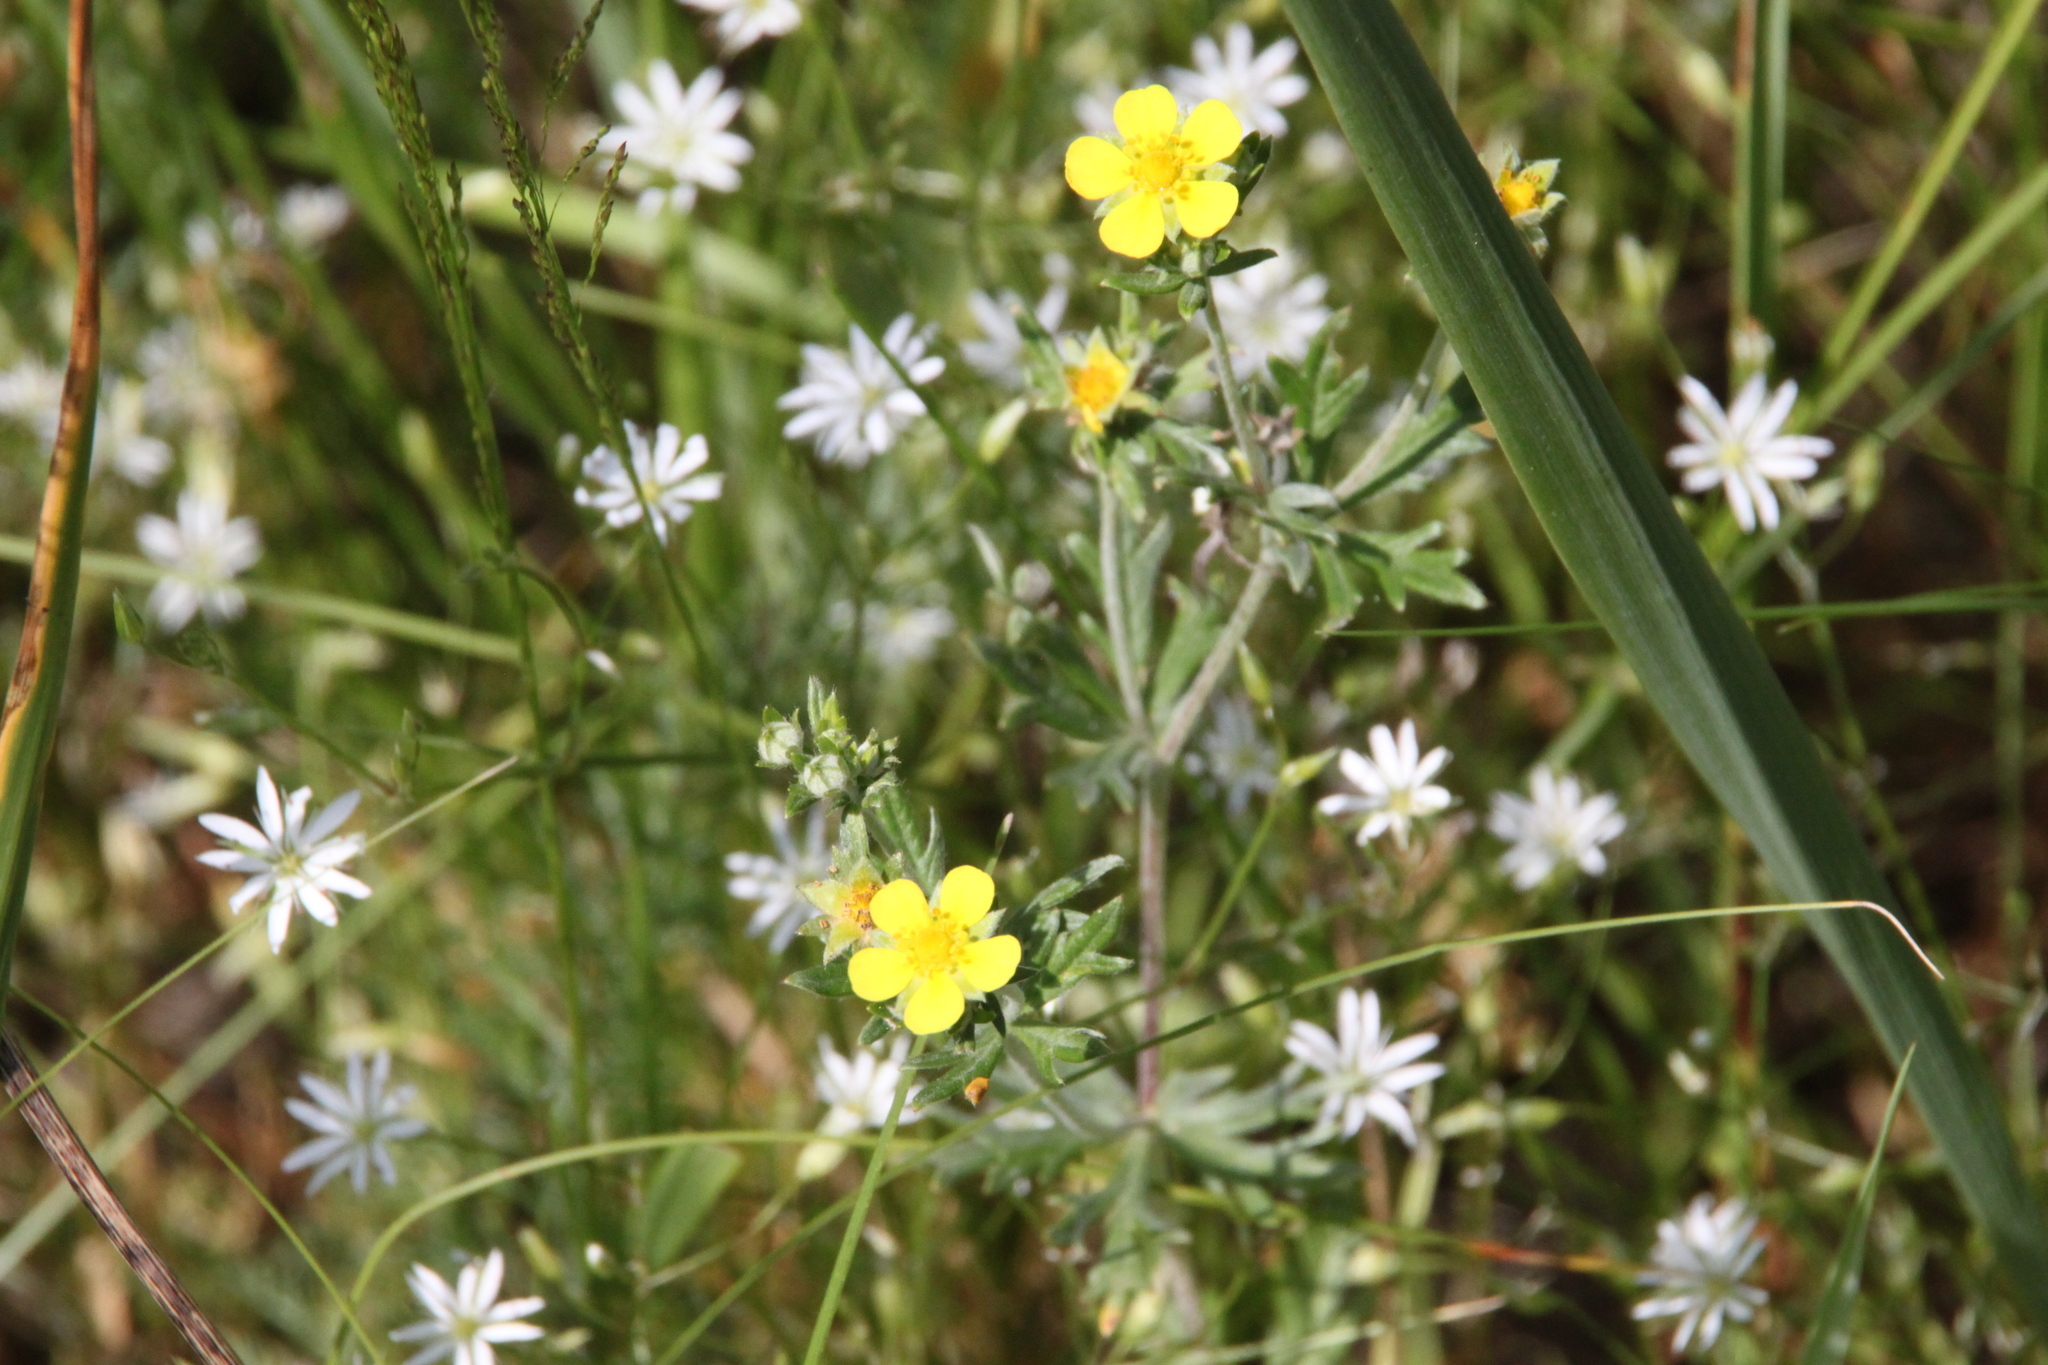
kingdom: Plantae
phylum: Tracheophyta
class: Magnoliopsida
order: Rosales
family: Rosaceae
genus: Potentilla
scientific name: Potentilla argentea
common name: Hoary cinquefoil
